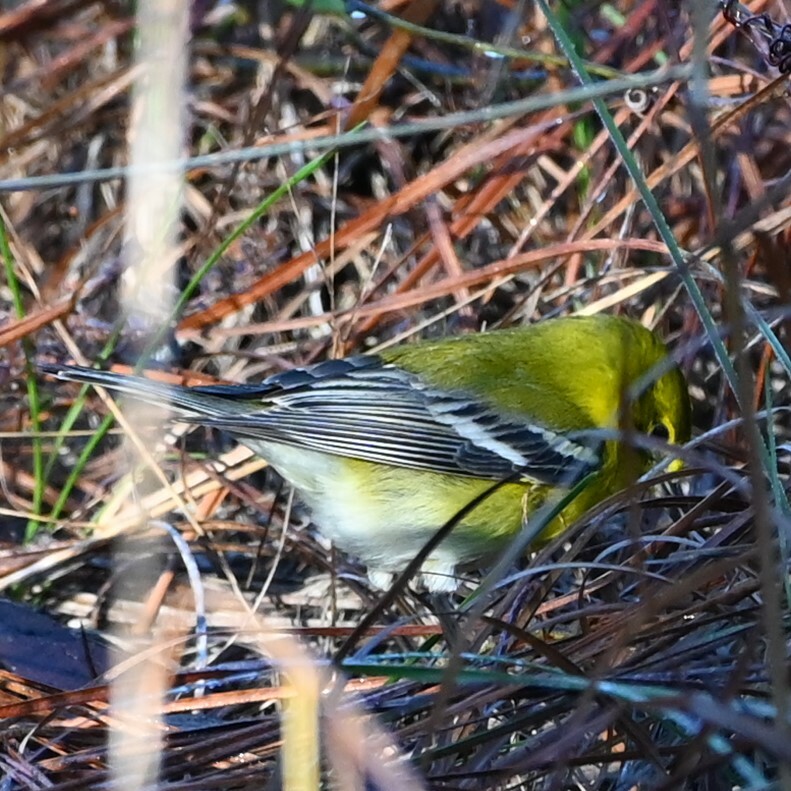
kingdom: Animalia
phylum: Chordata
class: Aves
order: Passeriformes
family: Parulidae
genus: Setophaga
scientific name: Setophaga pinus
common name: Pine warbler
